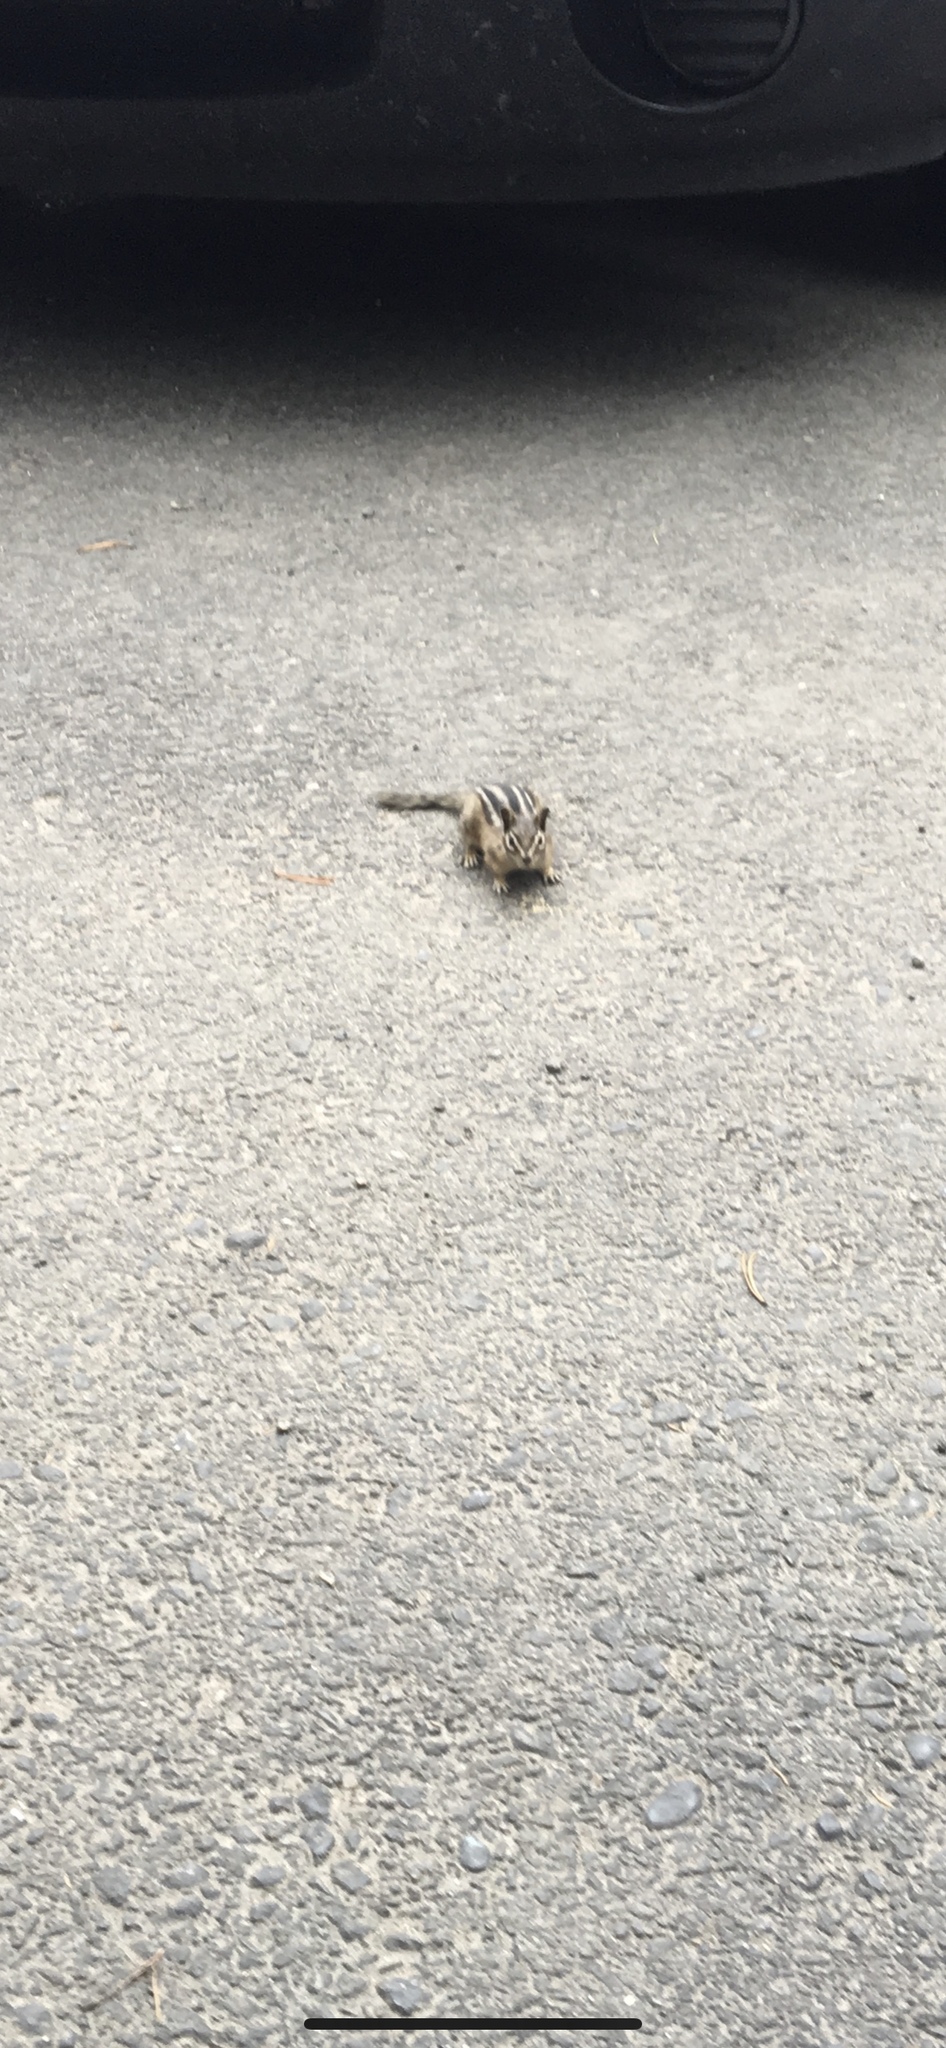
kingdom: Animalia
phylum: Chordata
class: Mammalia
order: Rodentia
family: Sciuridae
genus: Tamias
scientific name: Tamias minimus
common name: Least chipmunk
